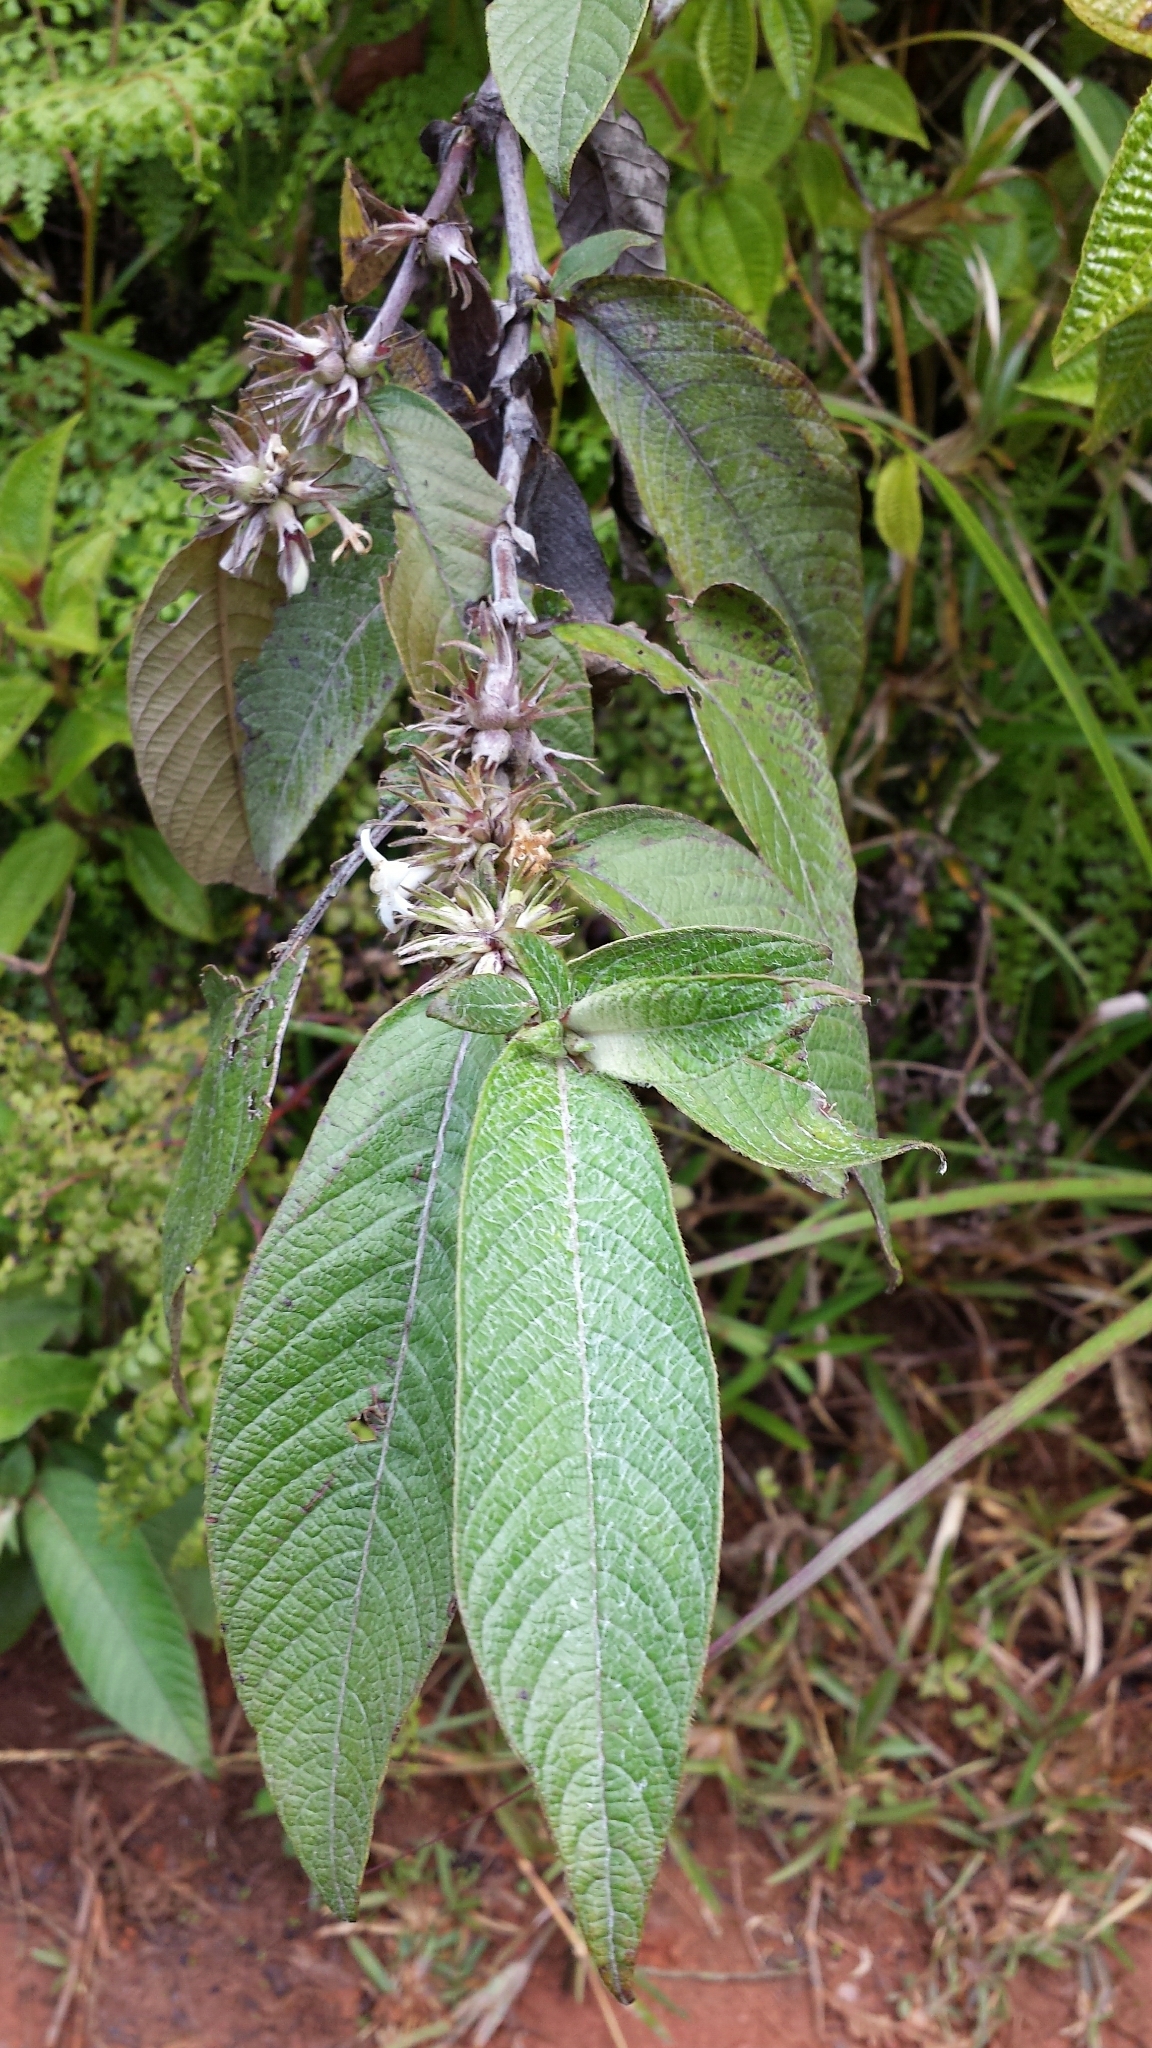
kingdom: Plantae
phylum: Tracheophyta
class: Magnoliopsida
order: Gentianales
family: Rubiaceae
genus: Sabicea
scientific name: Sabicea diversifolia
